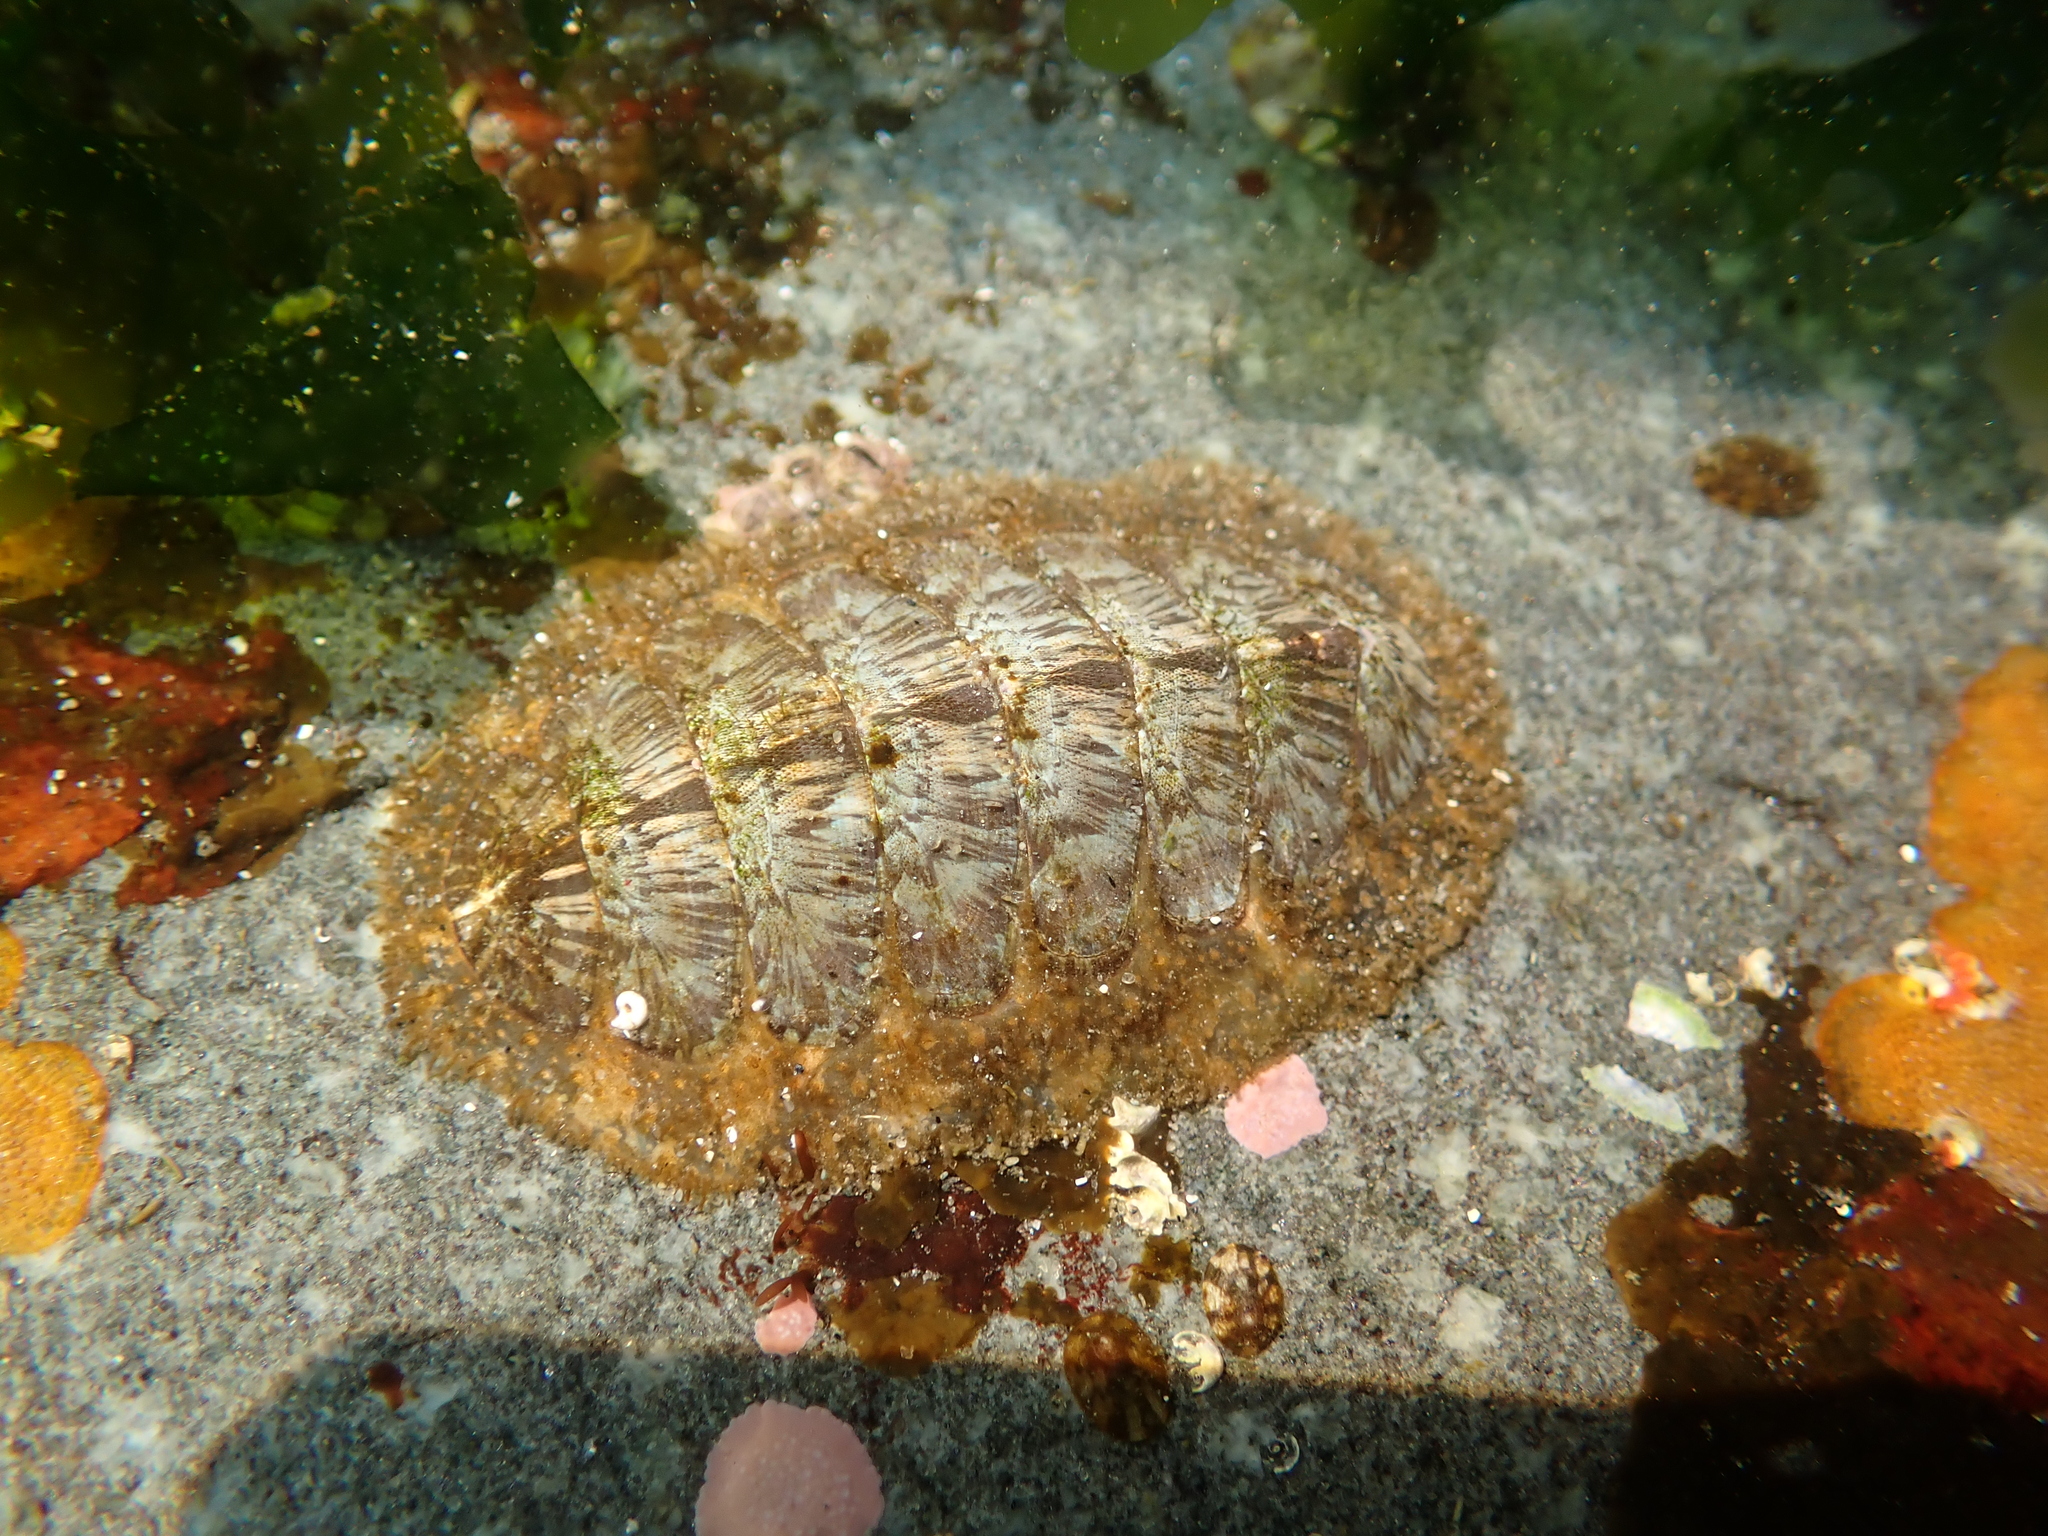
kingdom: Animalia
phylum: Mollusca
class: Polyplacophora
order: Chitonida
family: Mopaliidae
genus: Mopalia
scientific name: Mopalia lignosa
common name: Woody chiton
